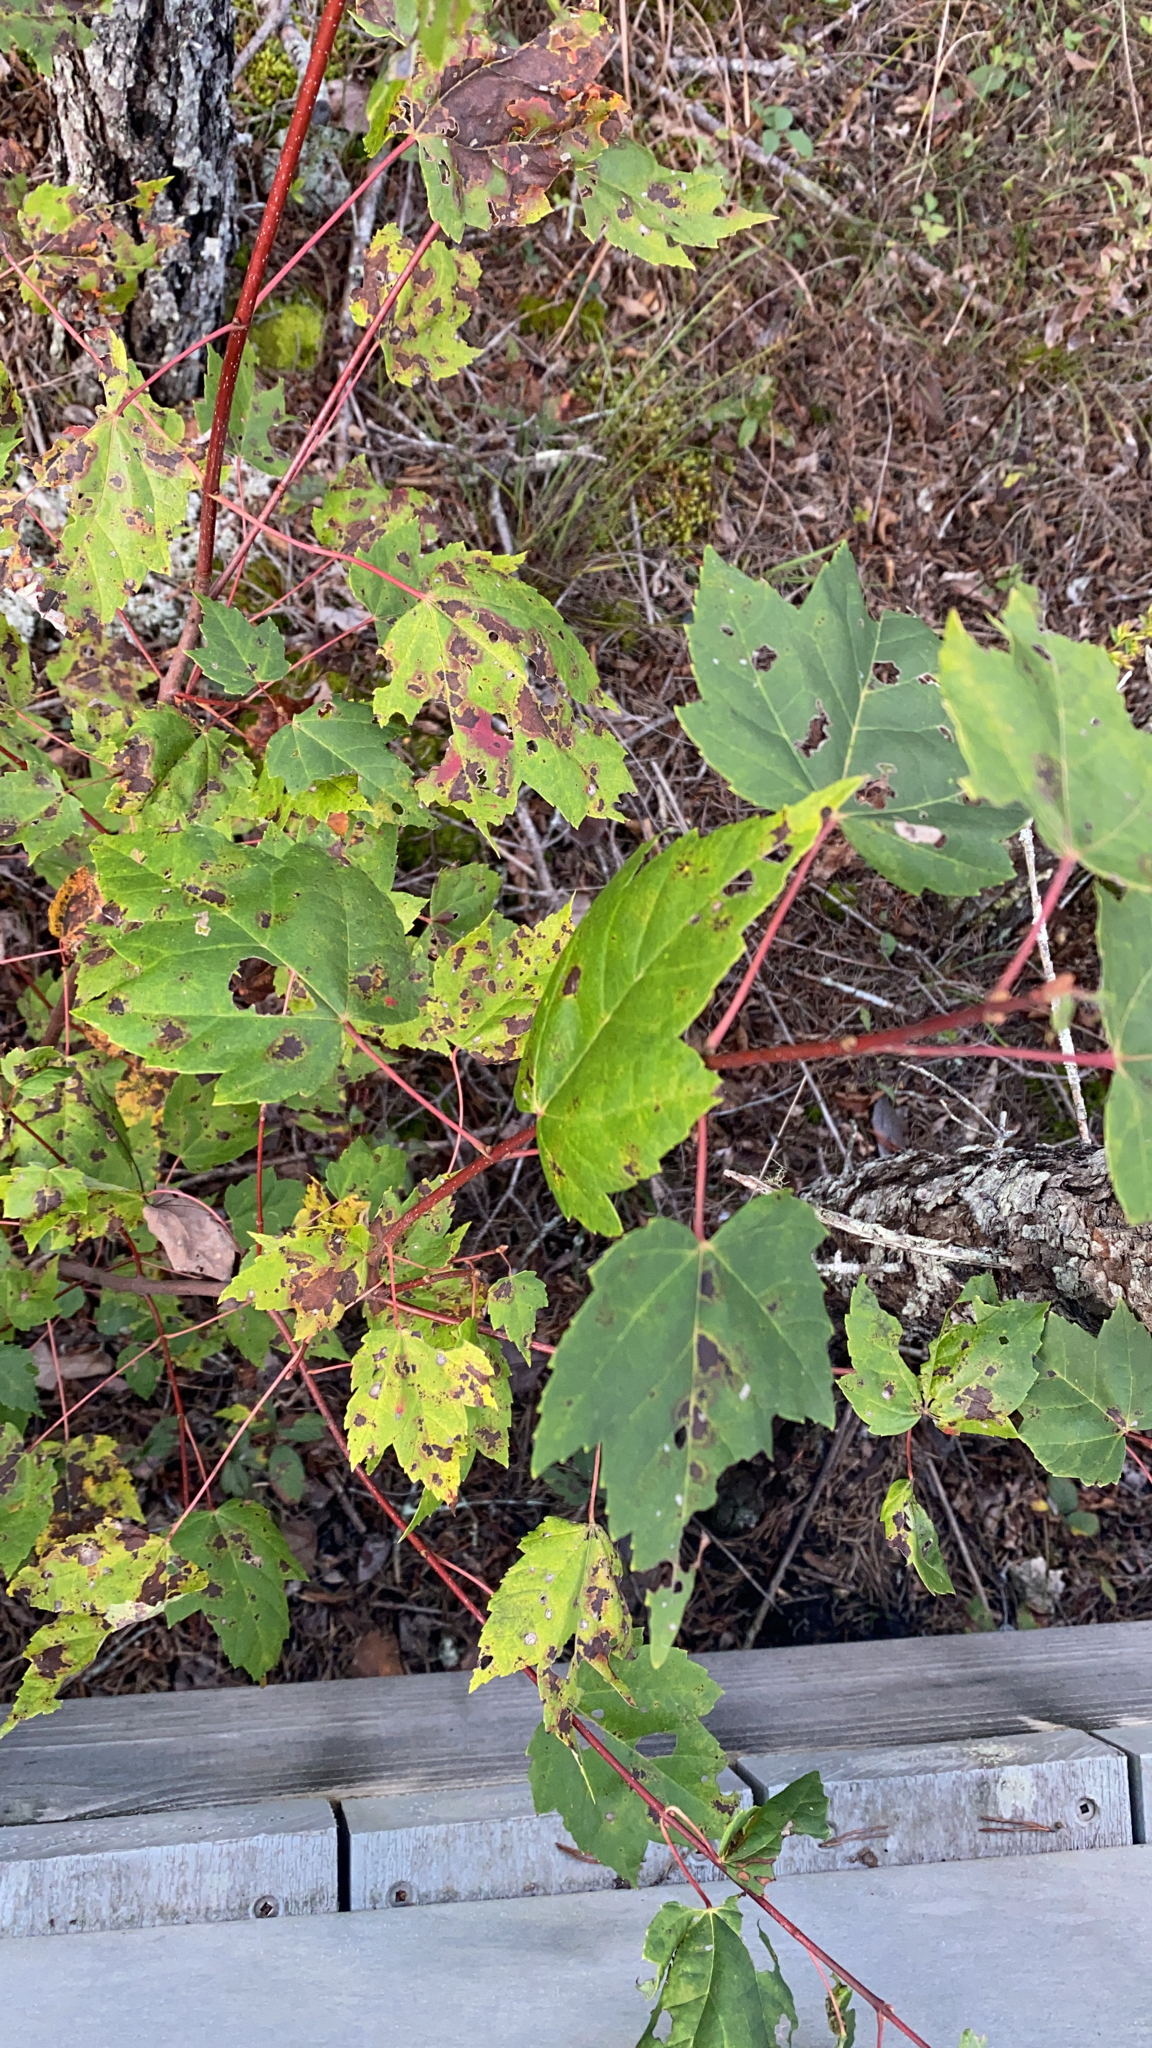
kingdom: Plantae
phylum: Tracheophyta
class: Magnoliopsida
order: Sapindales
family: Sapindaceae
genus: Acer
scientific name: Acer rubrum
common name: Red maple
